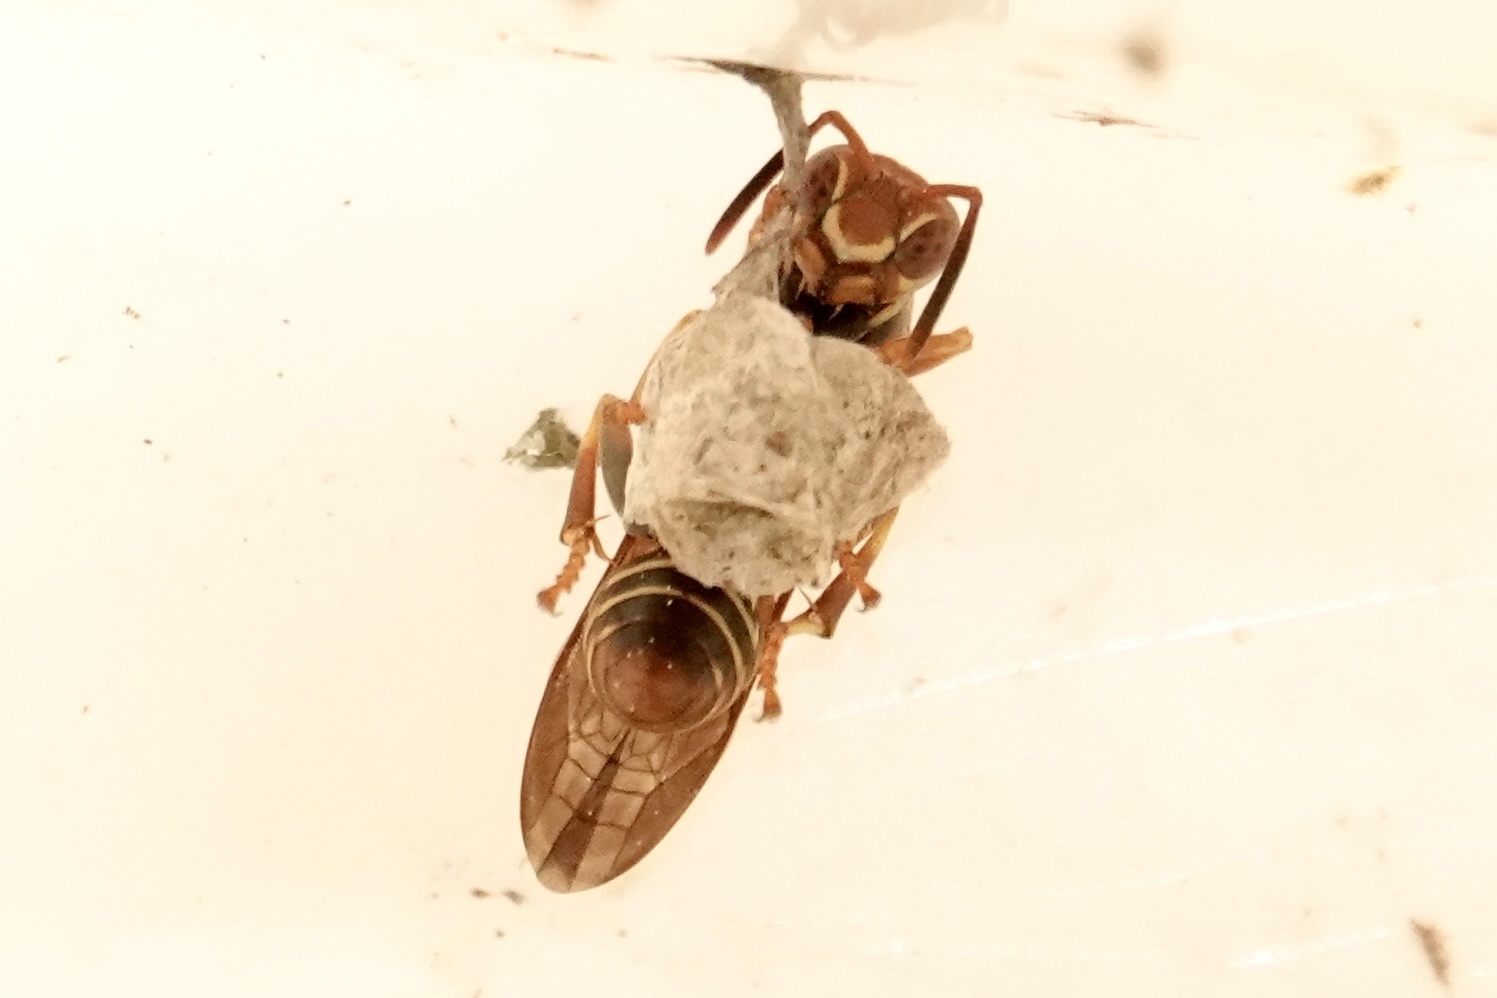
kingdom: Animalia
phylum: Arthropoda
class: Insecta
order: Hymenoptera
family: Eumenidae
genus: Polistes
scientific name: Polistes dorsalis
